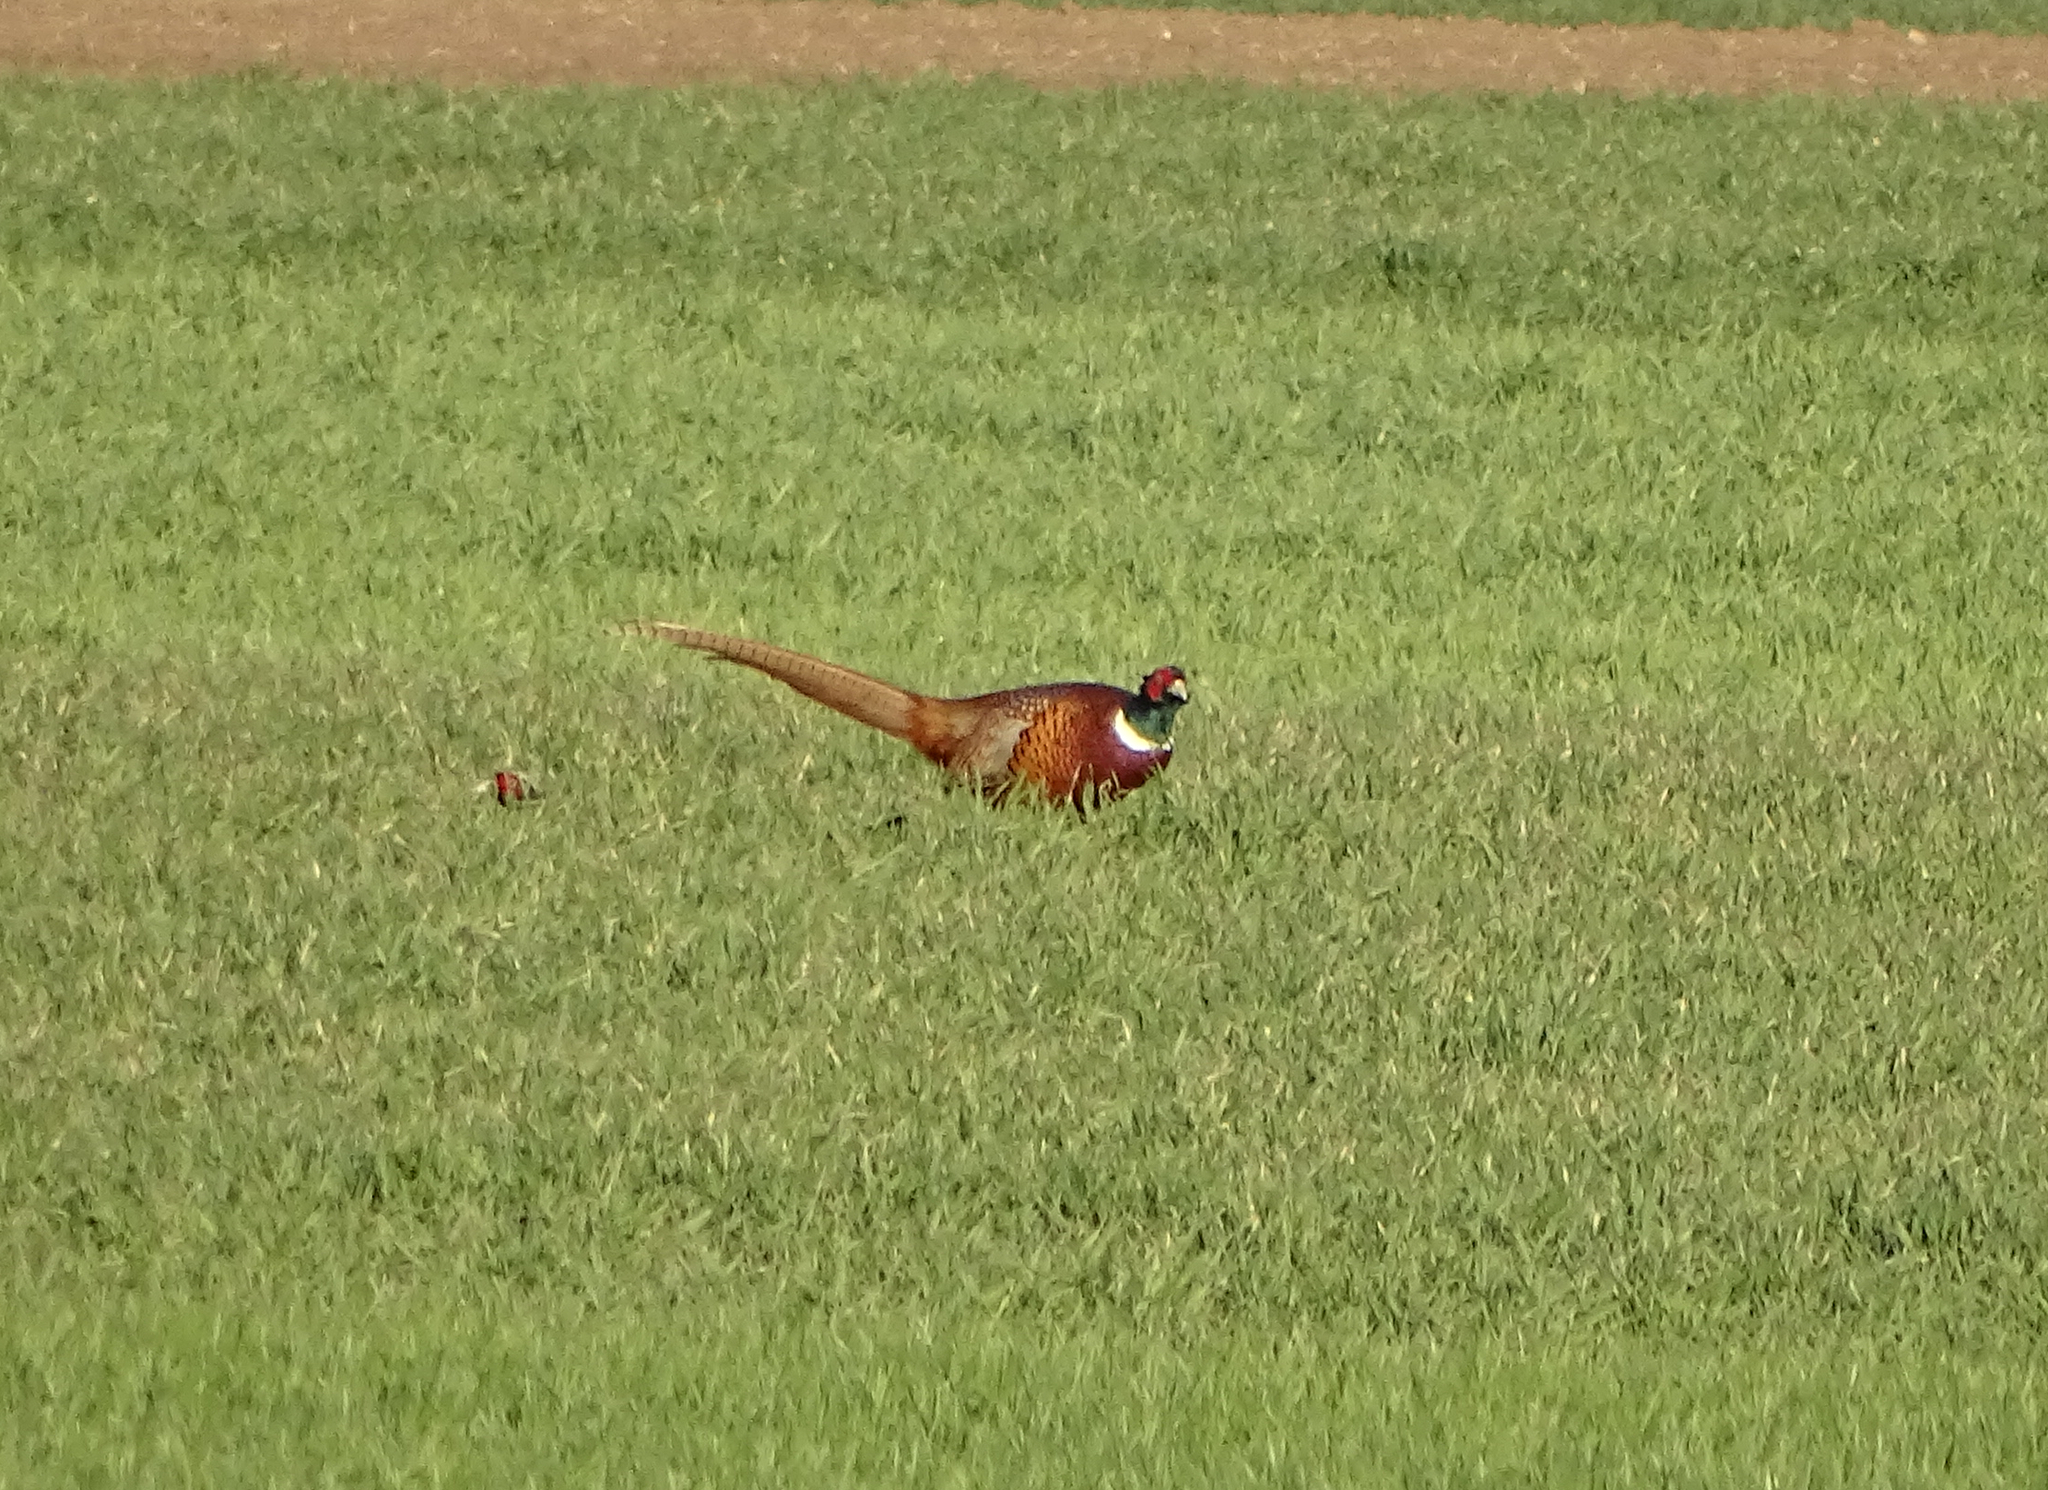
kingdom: Animalia
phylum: Chordata
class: Aves
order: Galliformes
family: Phasianidae
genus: Phasianus
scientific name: Phasianus colchicus
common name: Common pheasant
